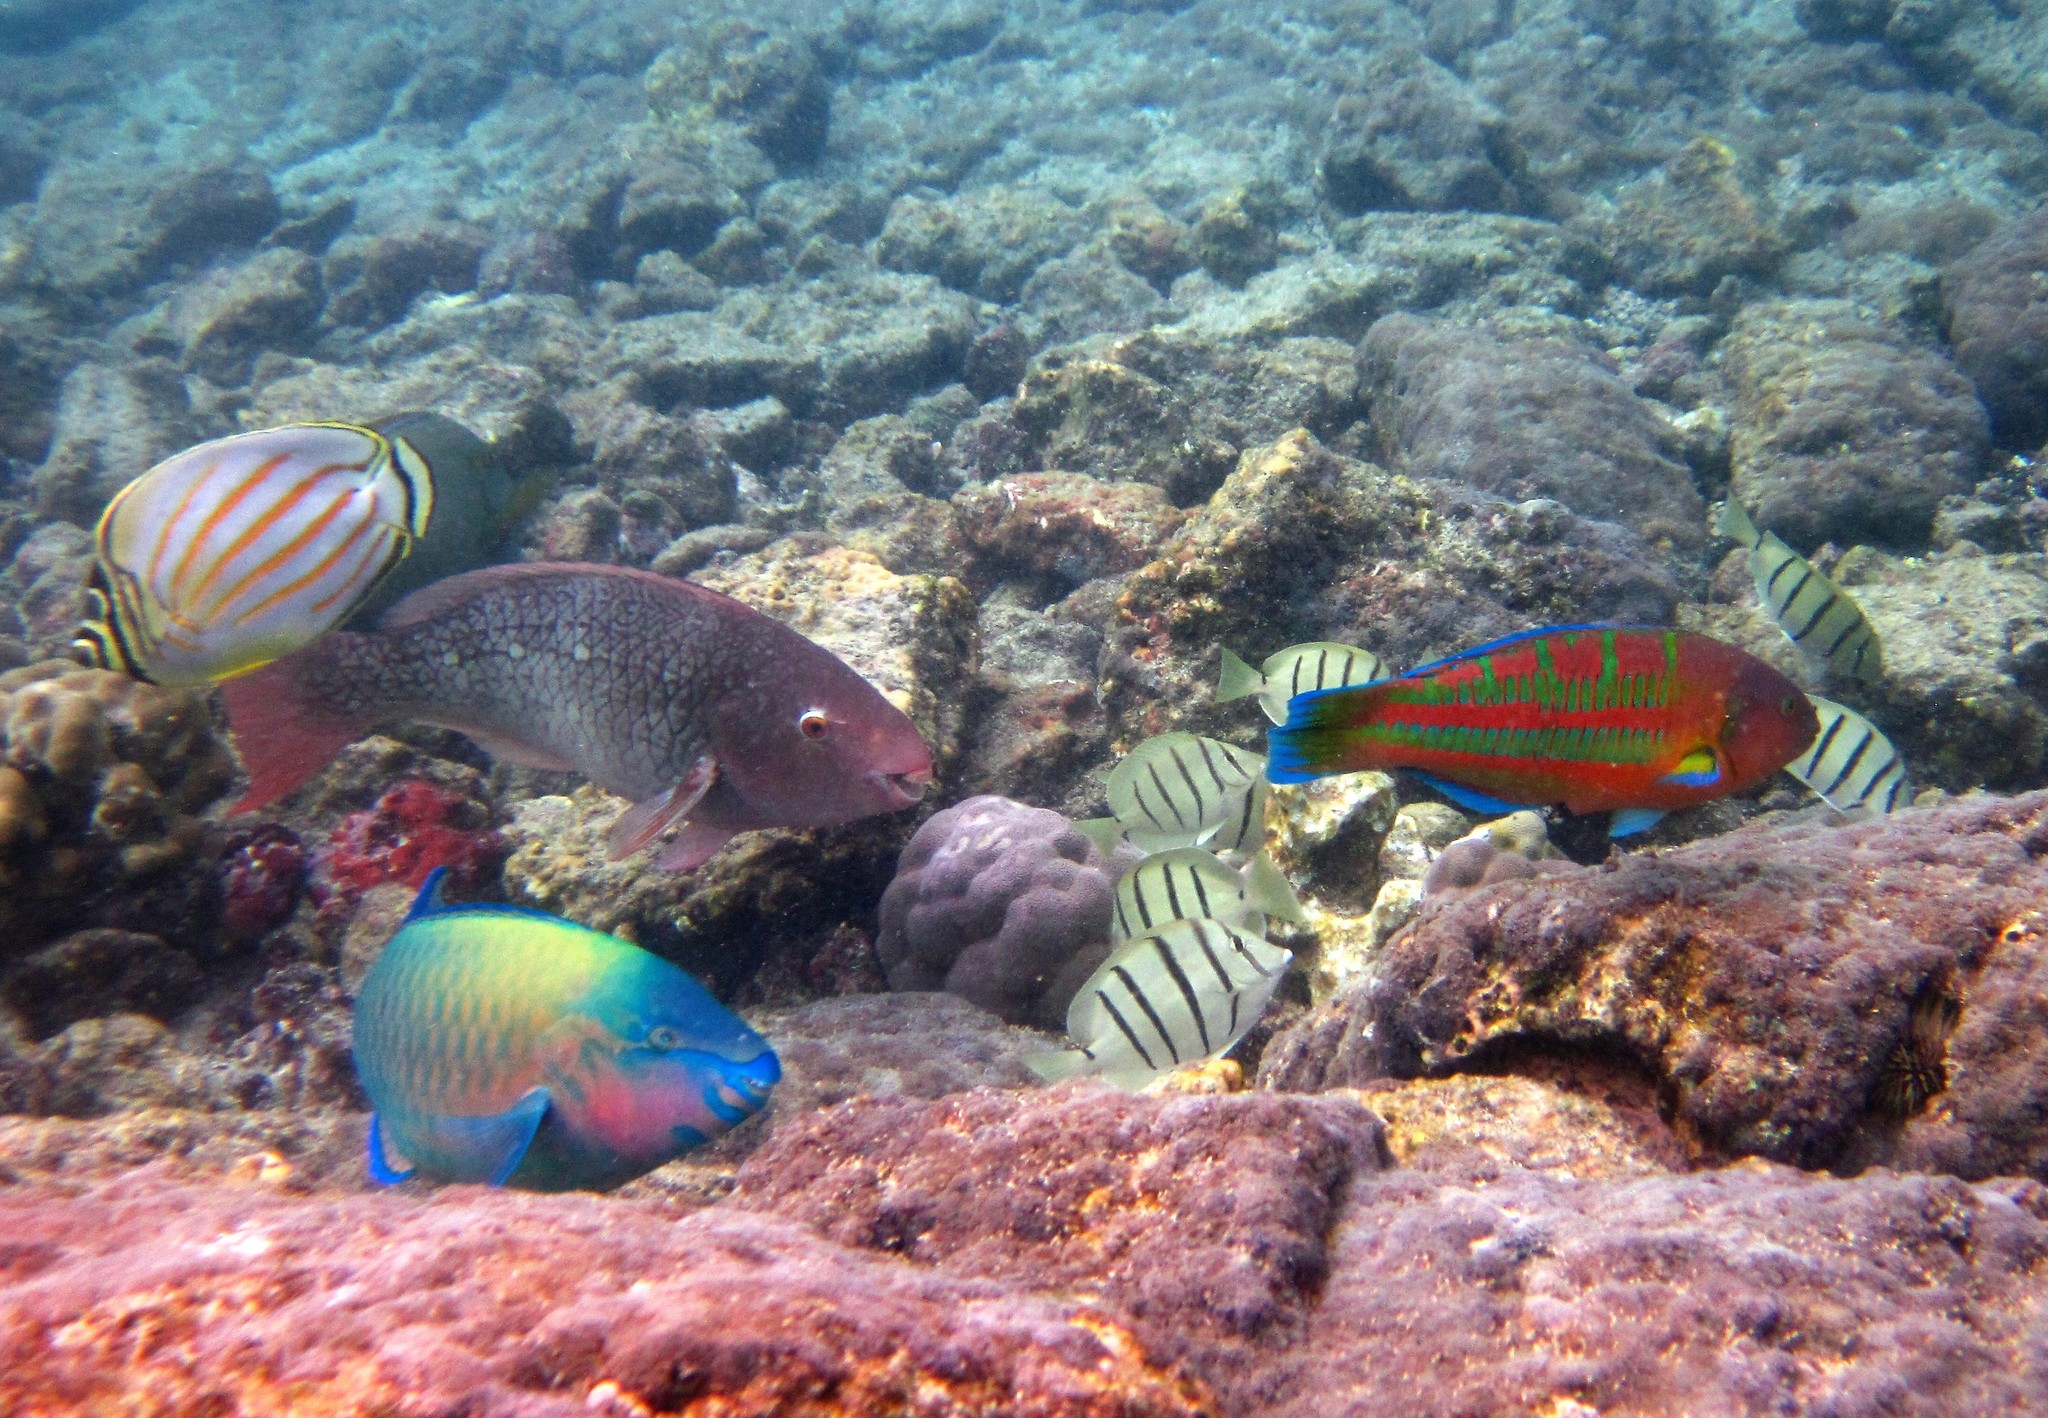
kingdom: Animalia
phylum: Chordata
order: Perciformes
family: Labridae
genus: Thalassoma
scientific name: Thalassoma trilobatum
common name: Christmas wrasse
